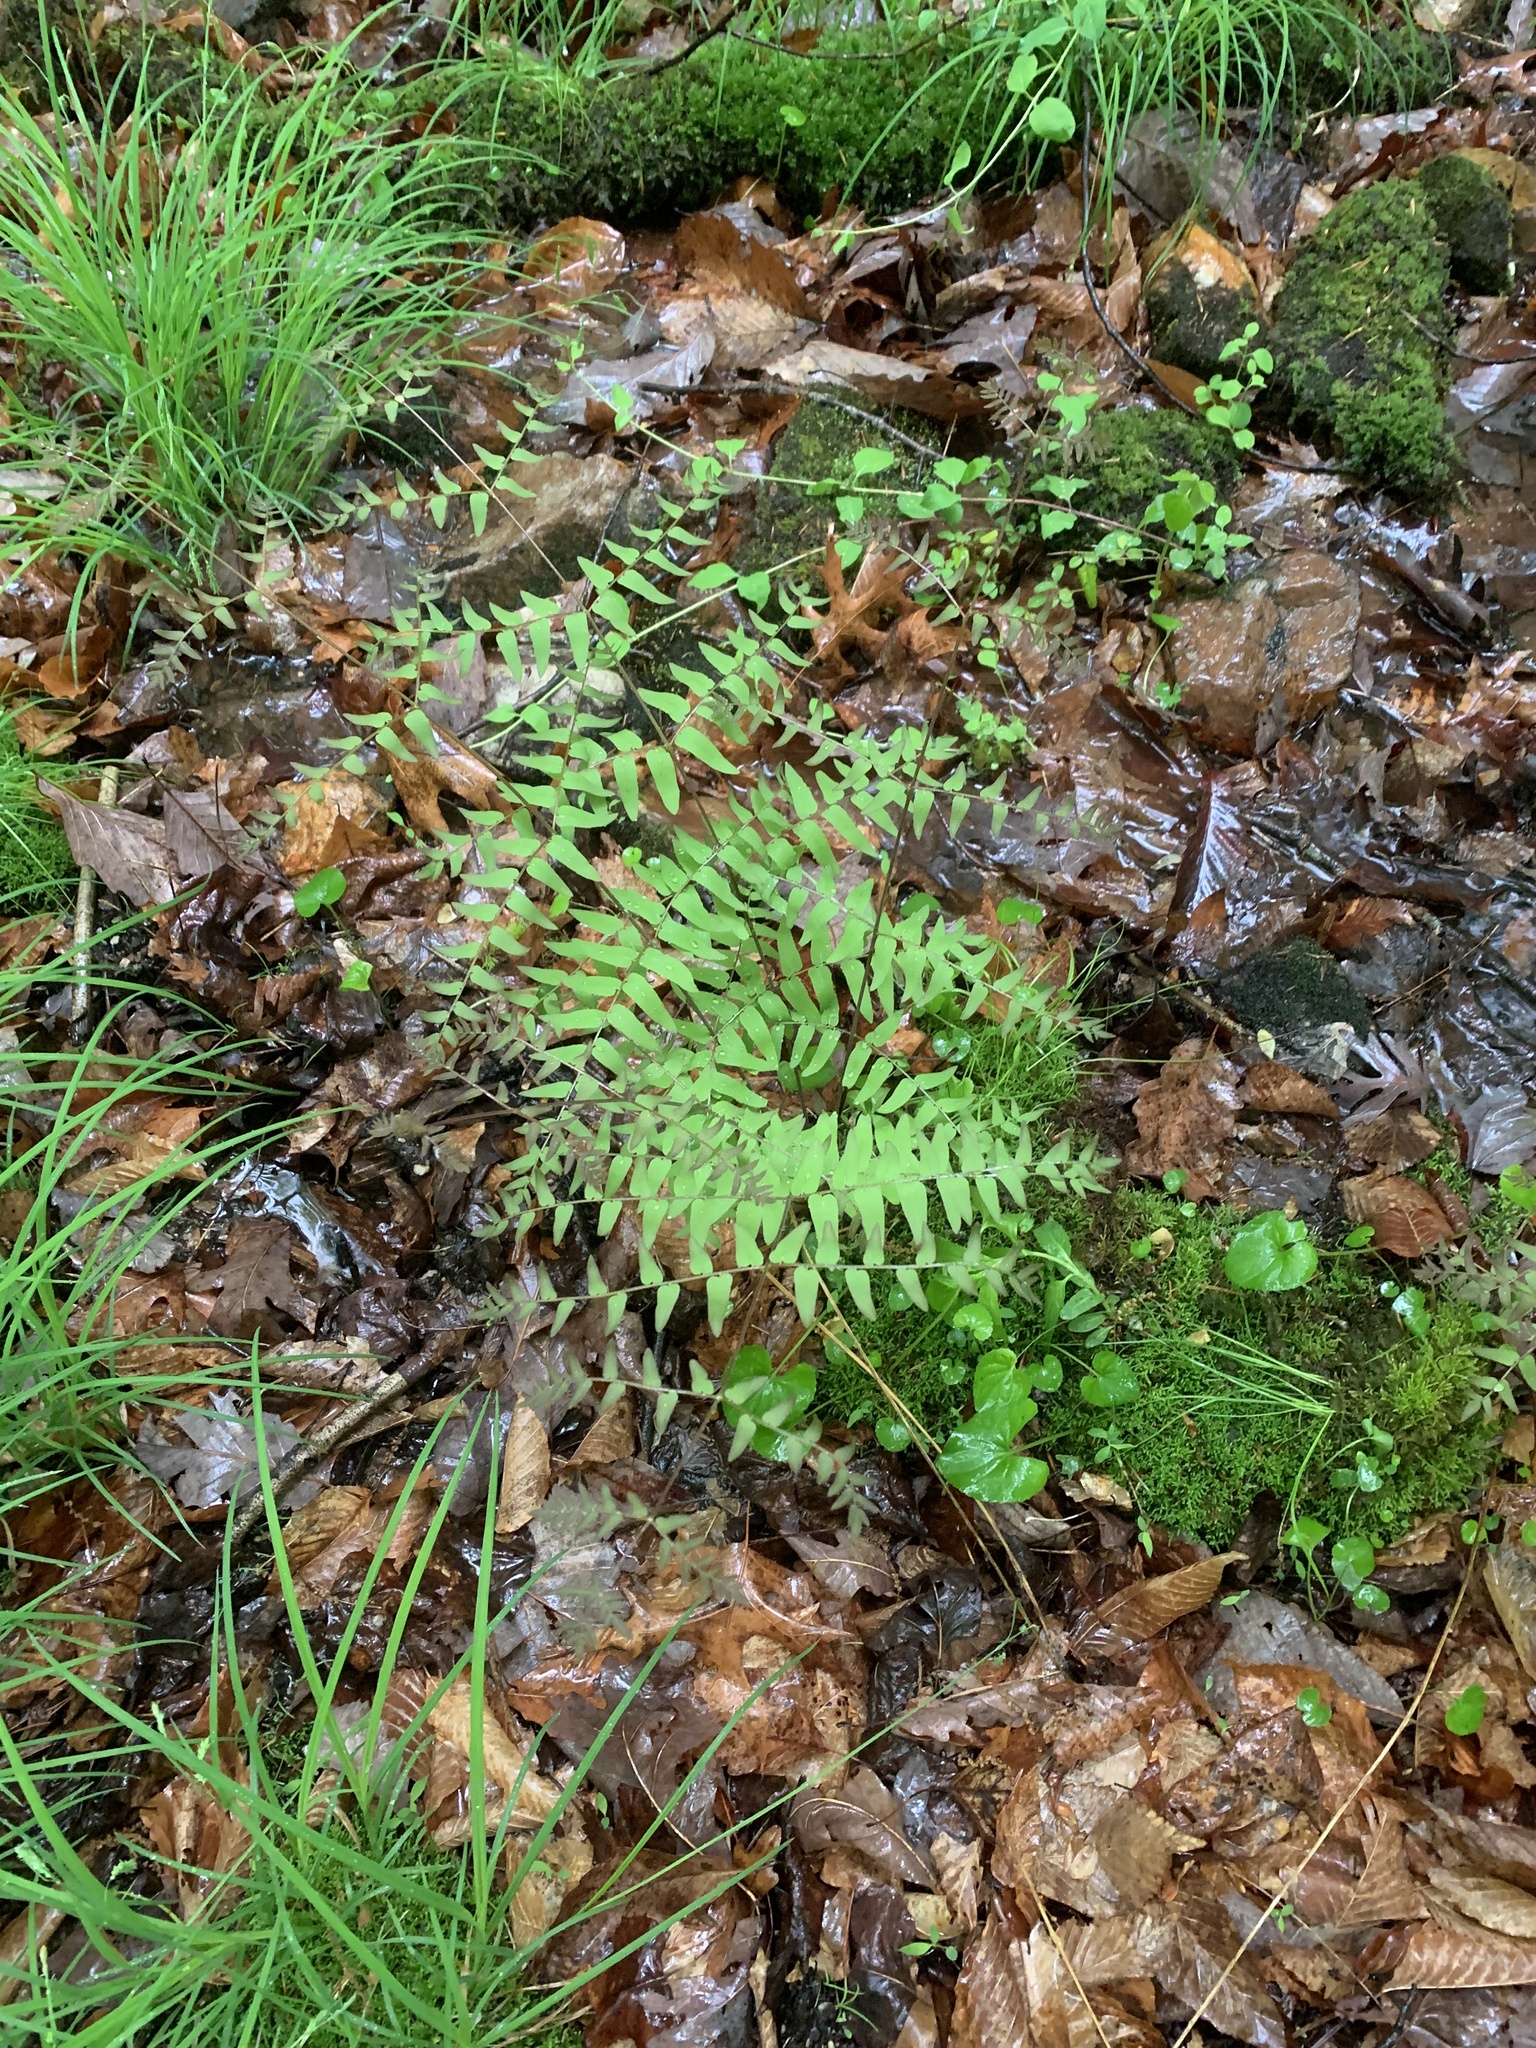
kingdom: Plantae
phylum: Tracheophyta
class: Polypodiopsida
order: Osmundales
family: Osmundaceae
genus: Osmunda
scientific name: Osmunda spectabilis
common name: American royal fern
